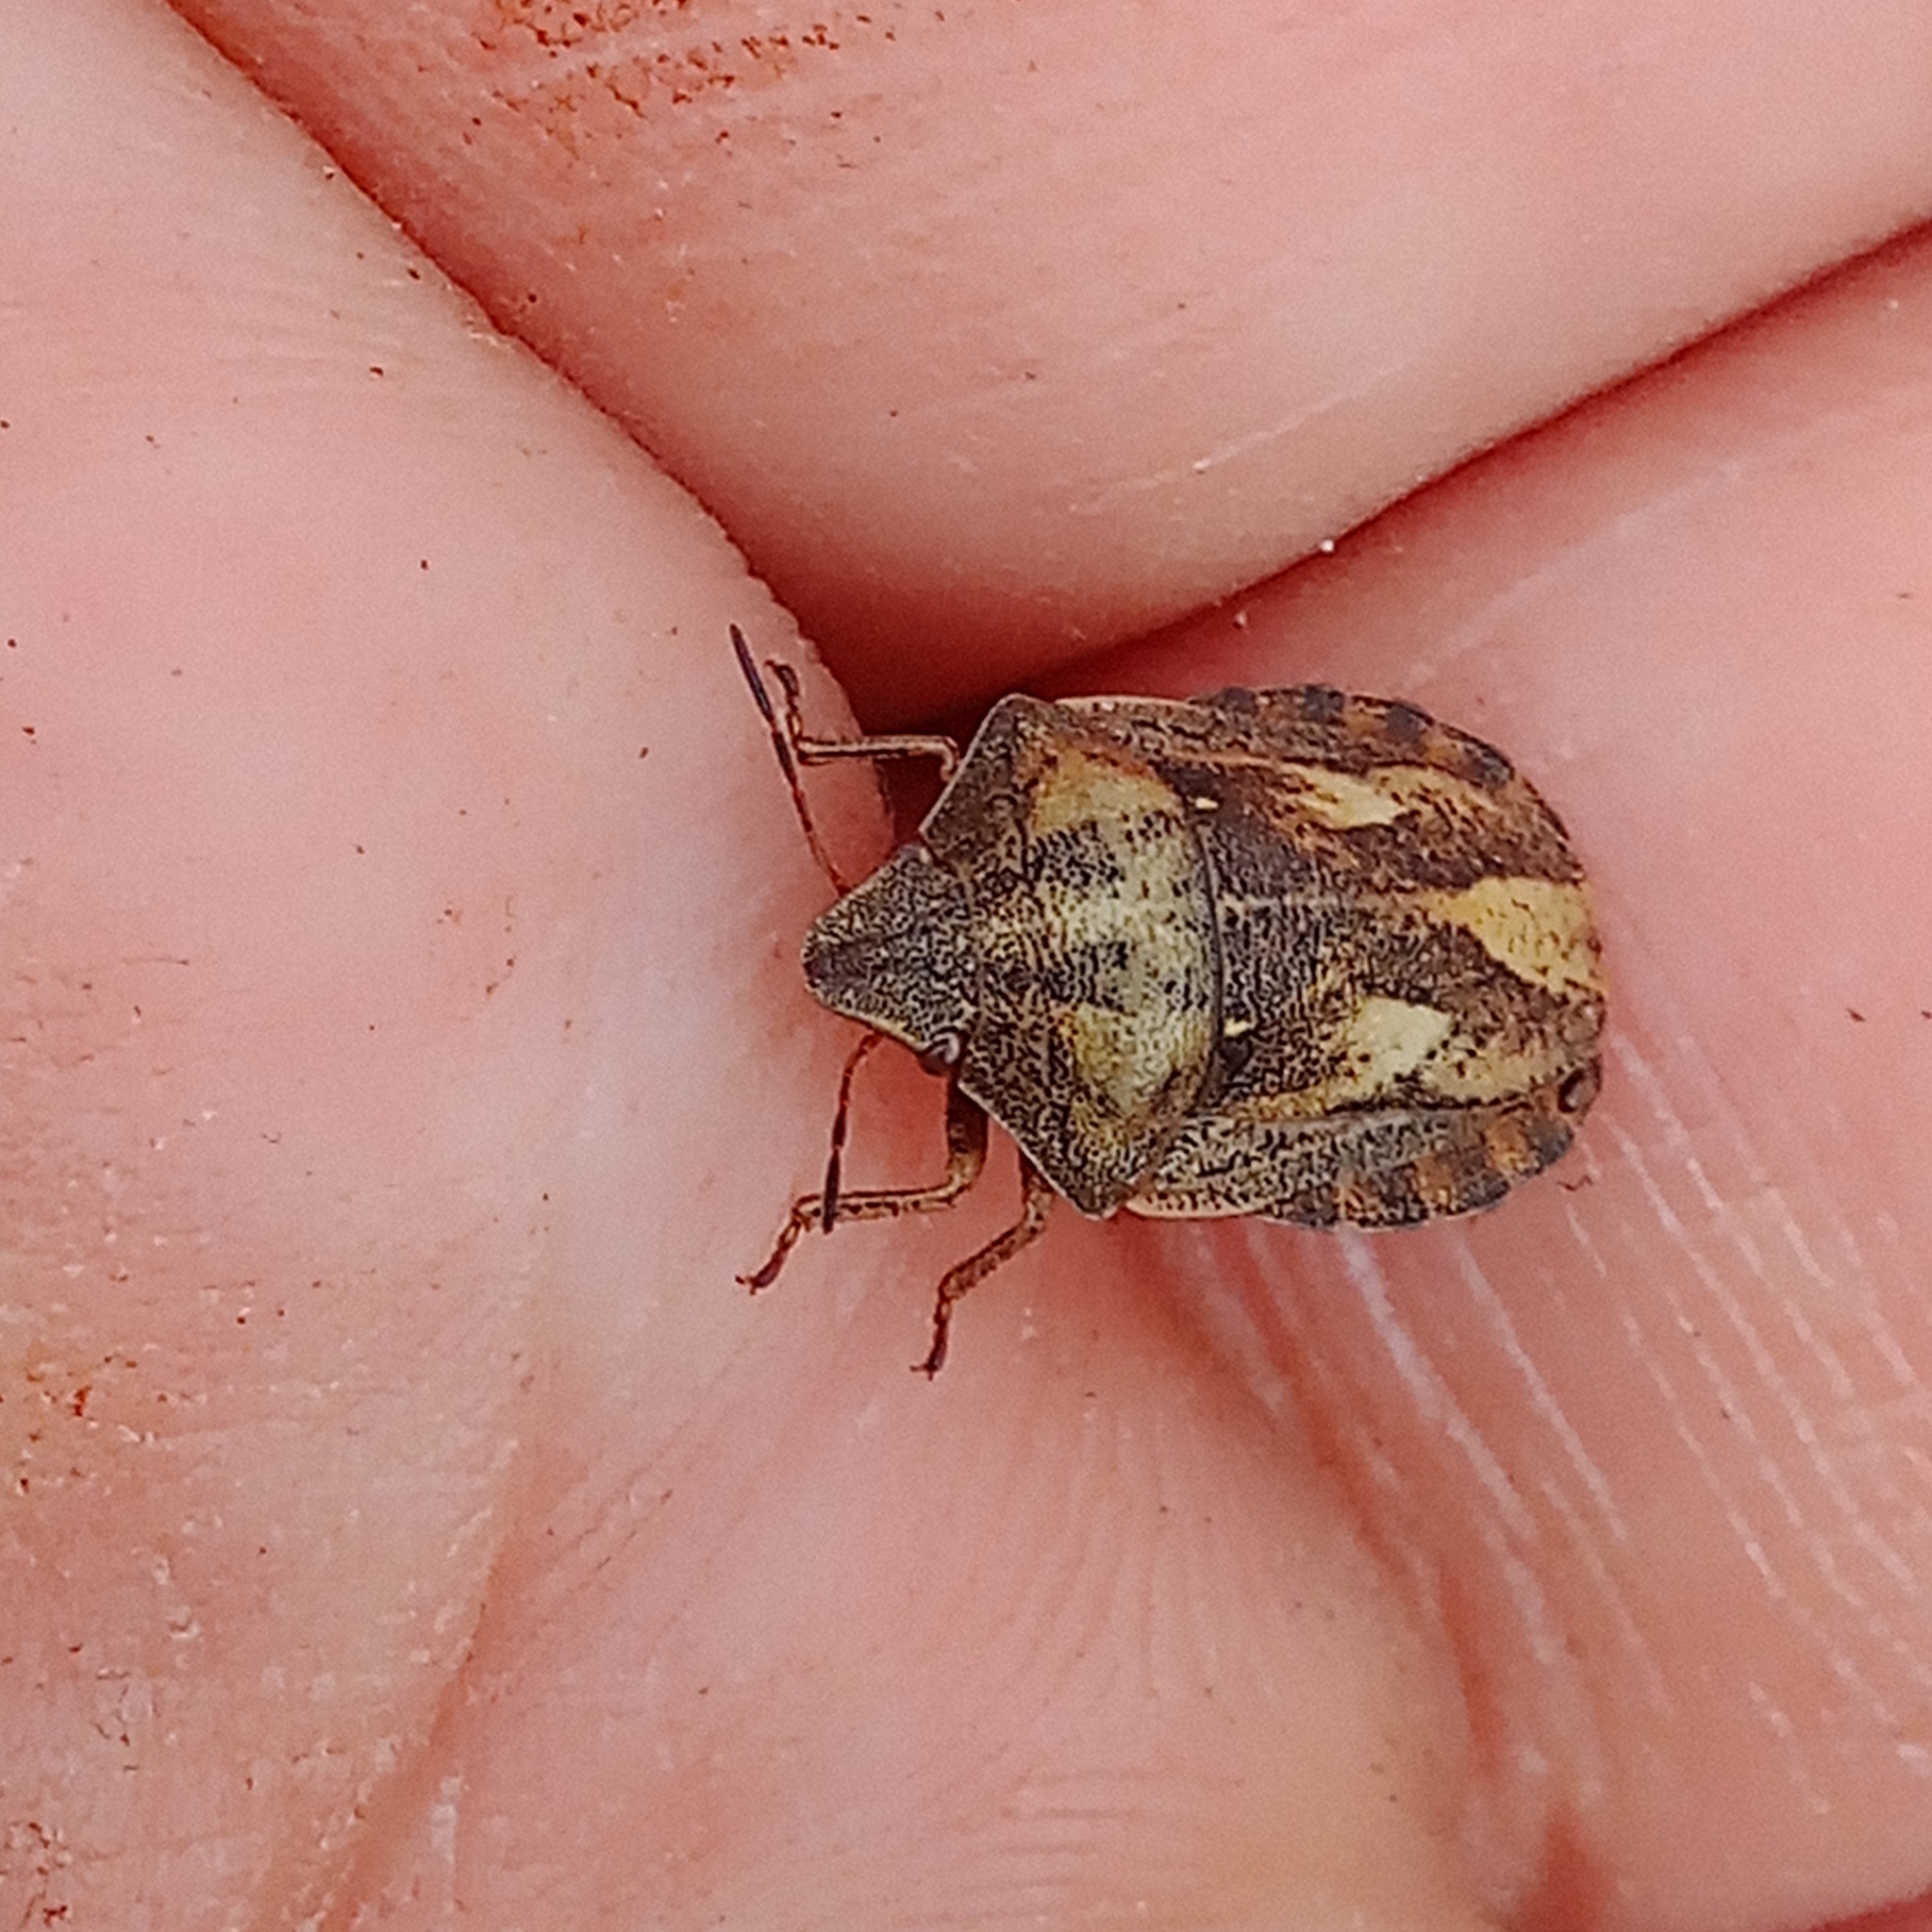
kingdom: Animalia
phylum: Arthropoda
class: Insecta
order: Hemiptera
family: Scutelleridae
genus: Eurygaster
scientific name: Eurygaster testudinaria
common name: Tortoise bug
